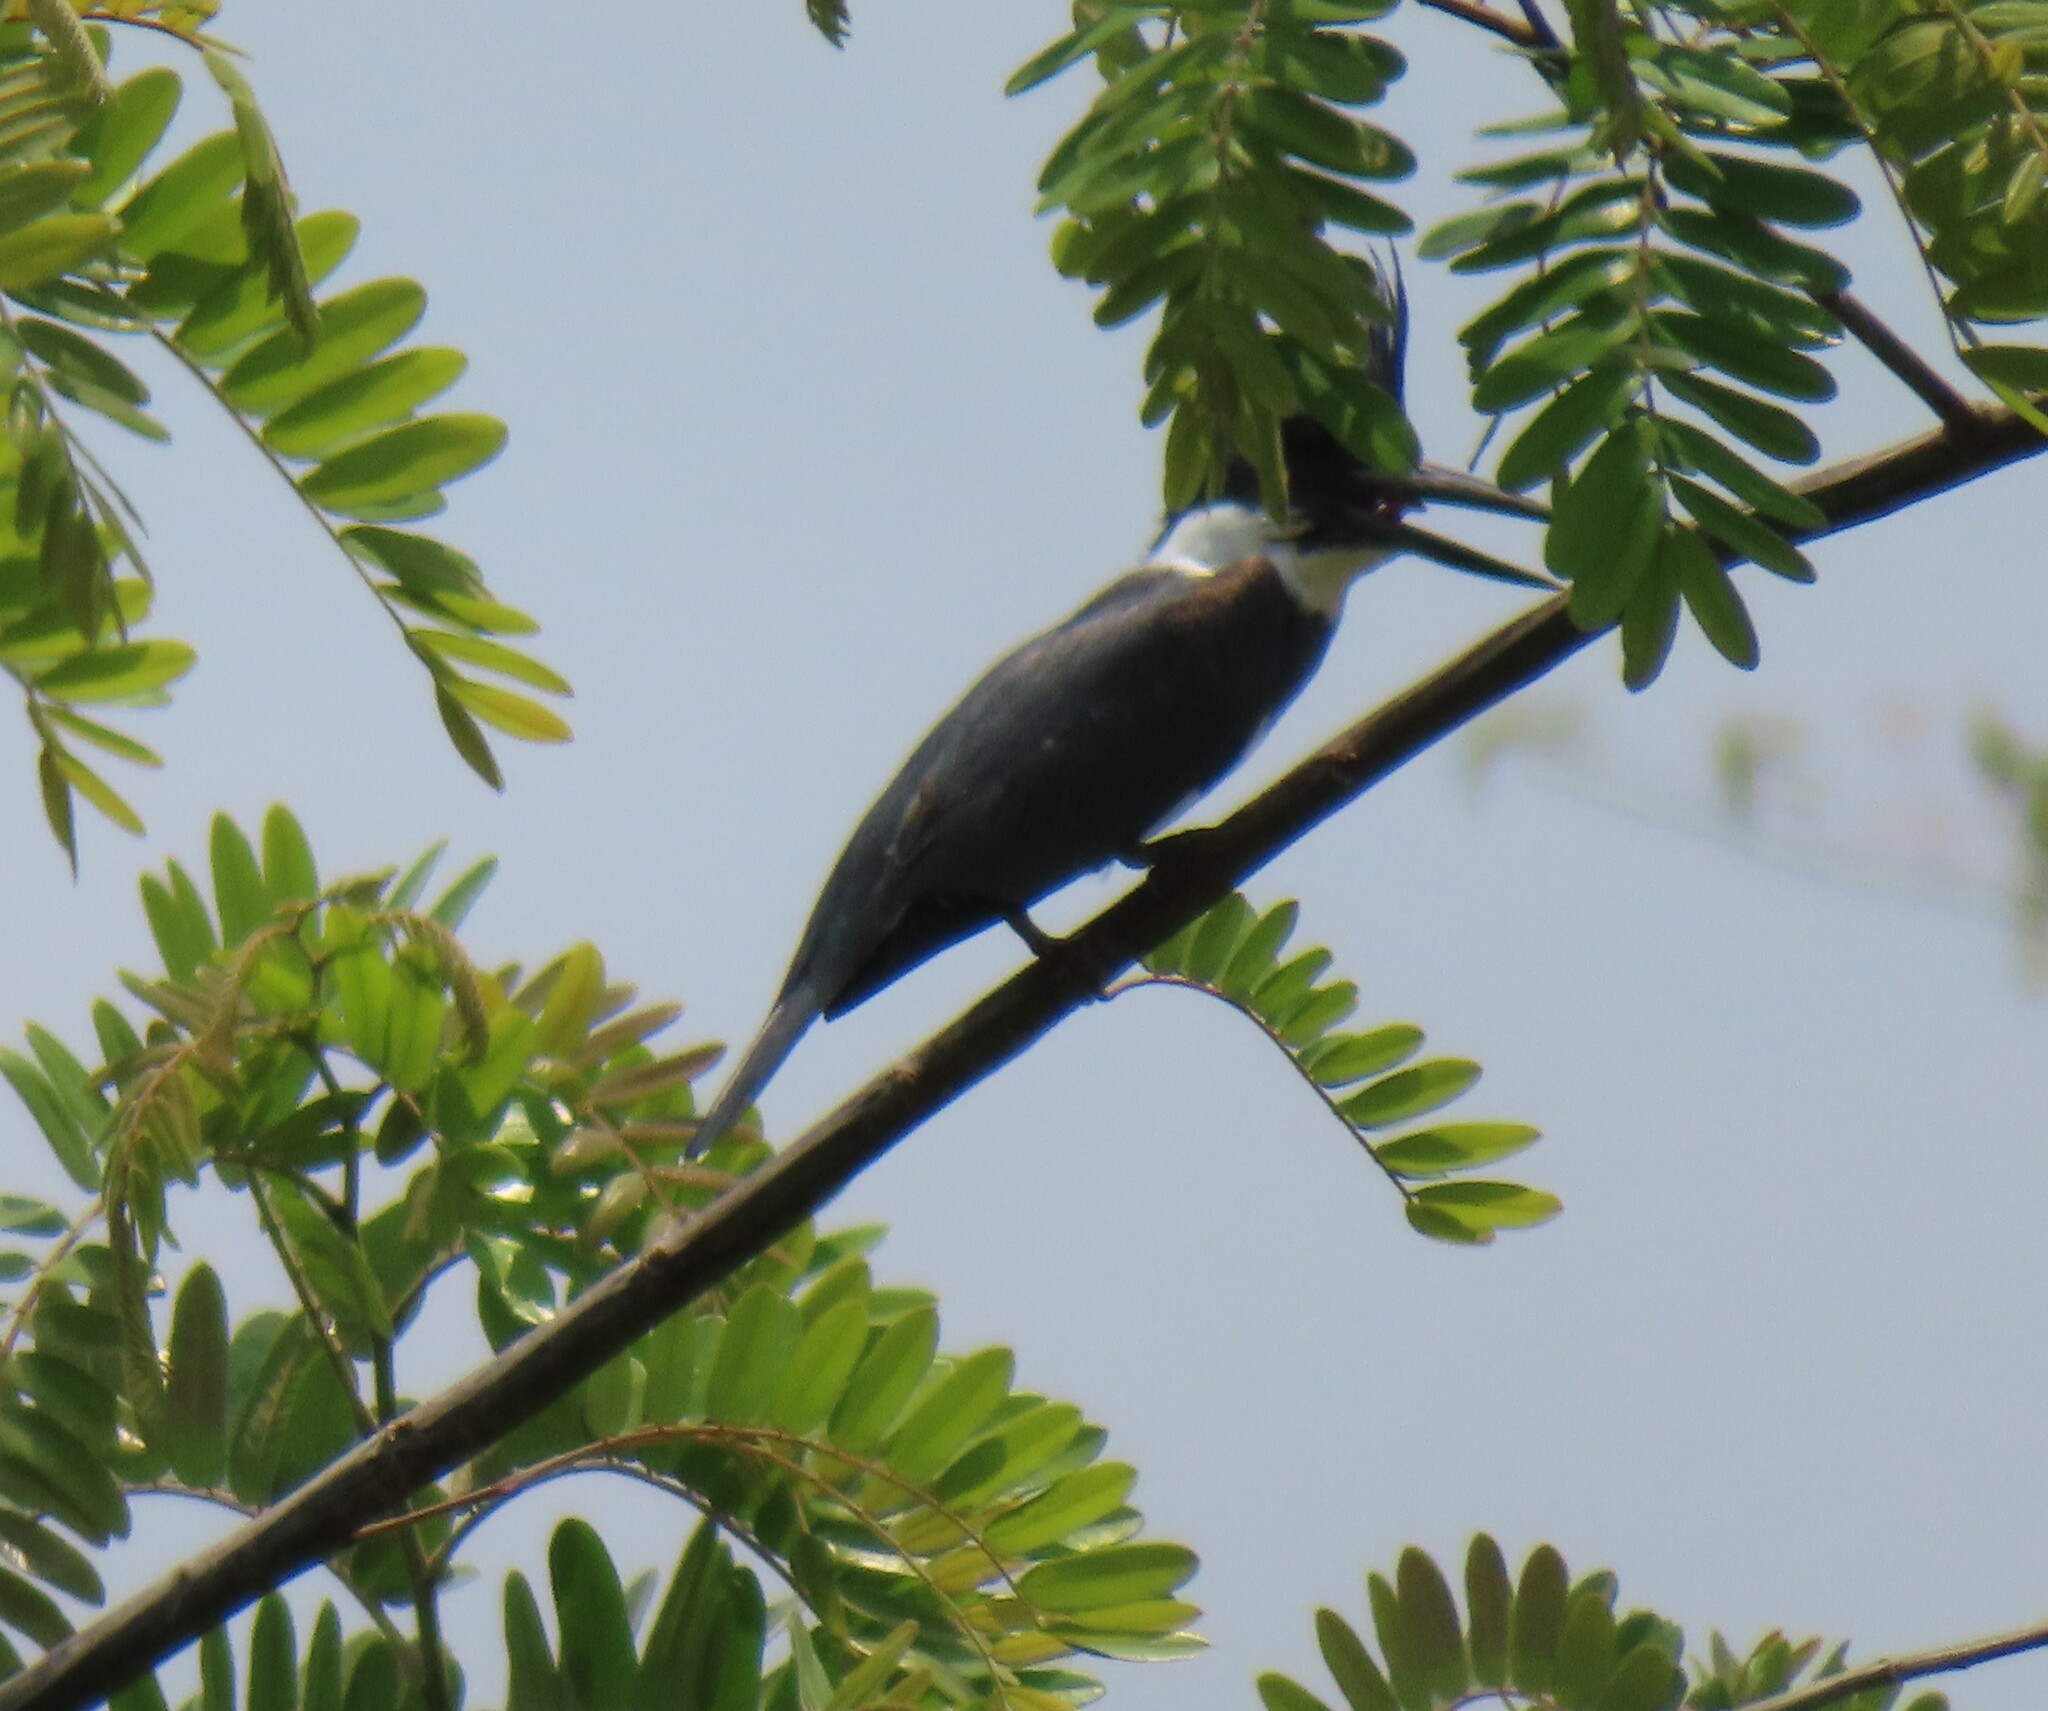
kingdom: Animalia
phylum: Chordata
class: Aves
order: Coraciiformes
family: Alcedinidae
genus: Megaceryle
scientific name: Megaceryle alcyon
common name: Belted kingfisher
